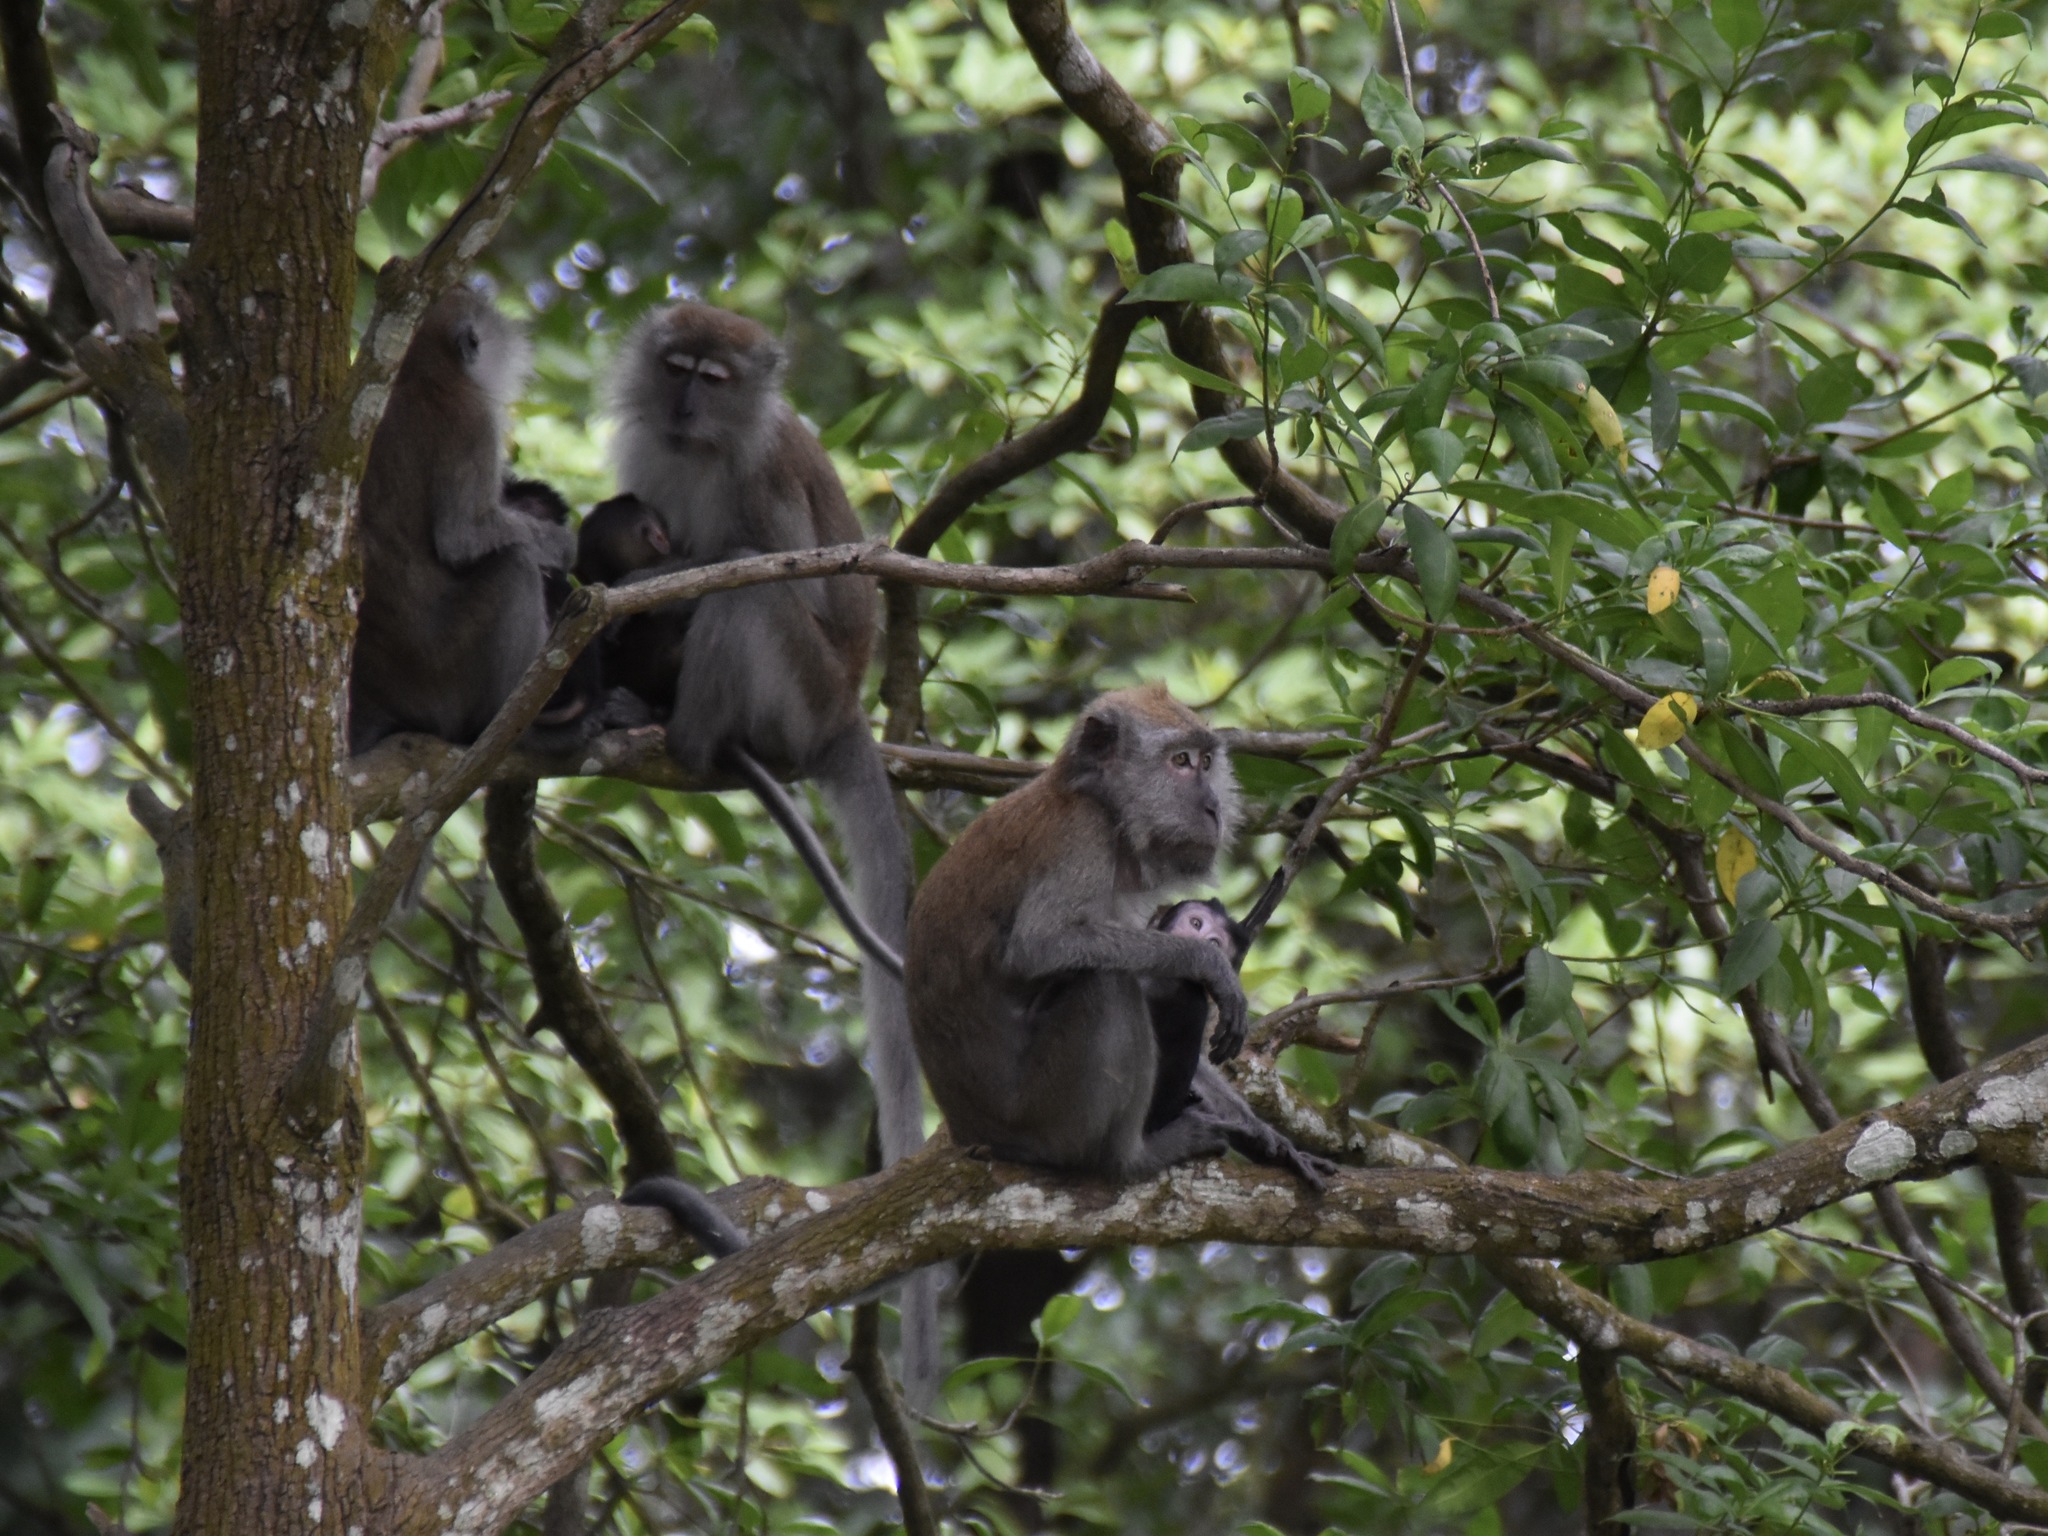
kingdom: Animalia
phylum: Chordata
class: Mammalia
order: Primates
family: Cercopithecidae
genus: Macaca
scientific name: Macaca fascicularis
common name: Crab-eating macaque
